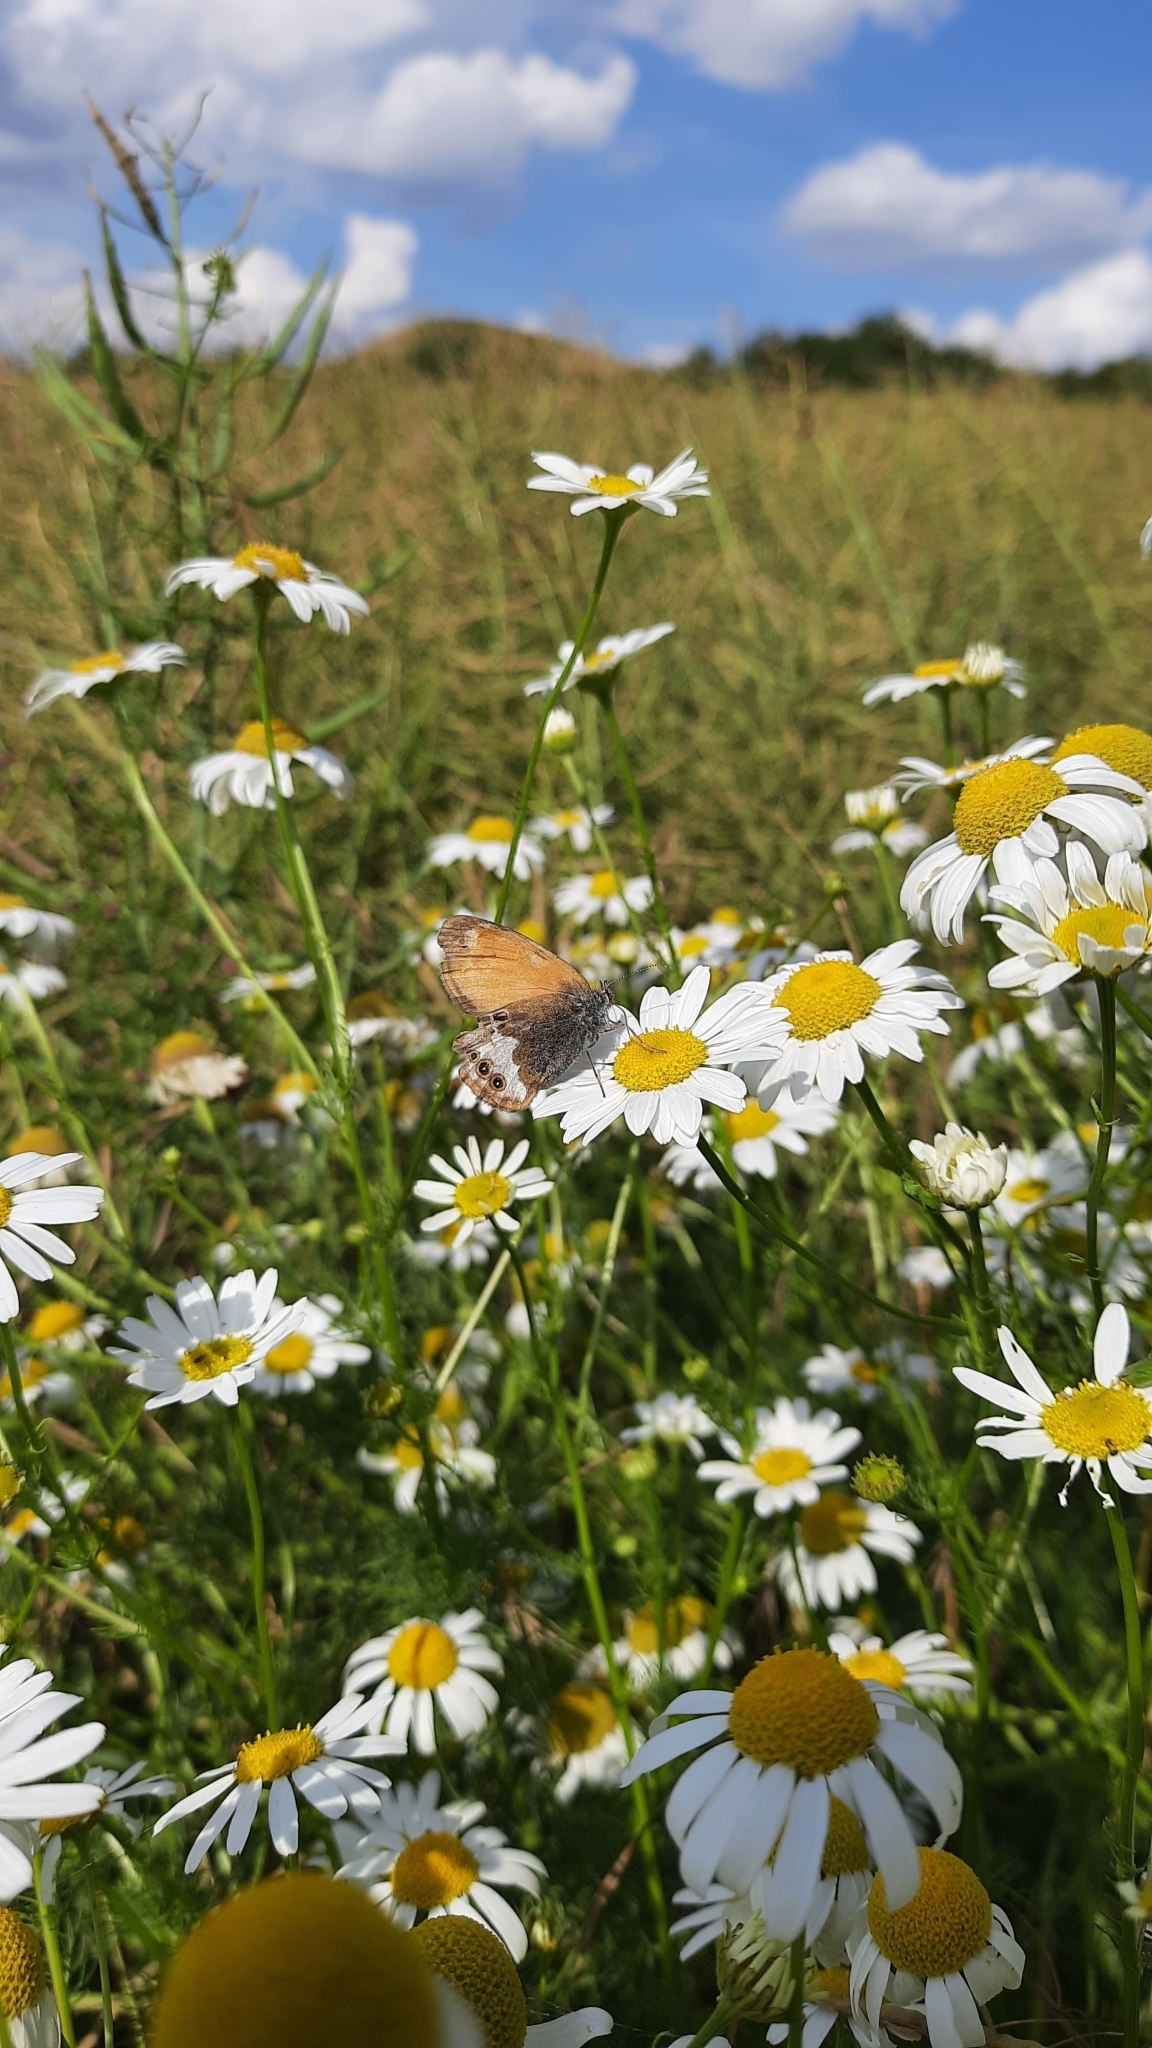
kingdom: Animalia
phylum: Arthropoda
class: Insecta
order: Lepidoptera
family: Nymphalidae
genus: Coenonympha
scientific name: Coenonympha arcania
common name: Pearly heath
